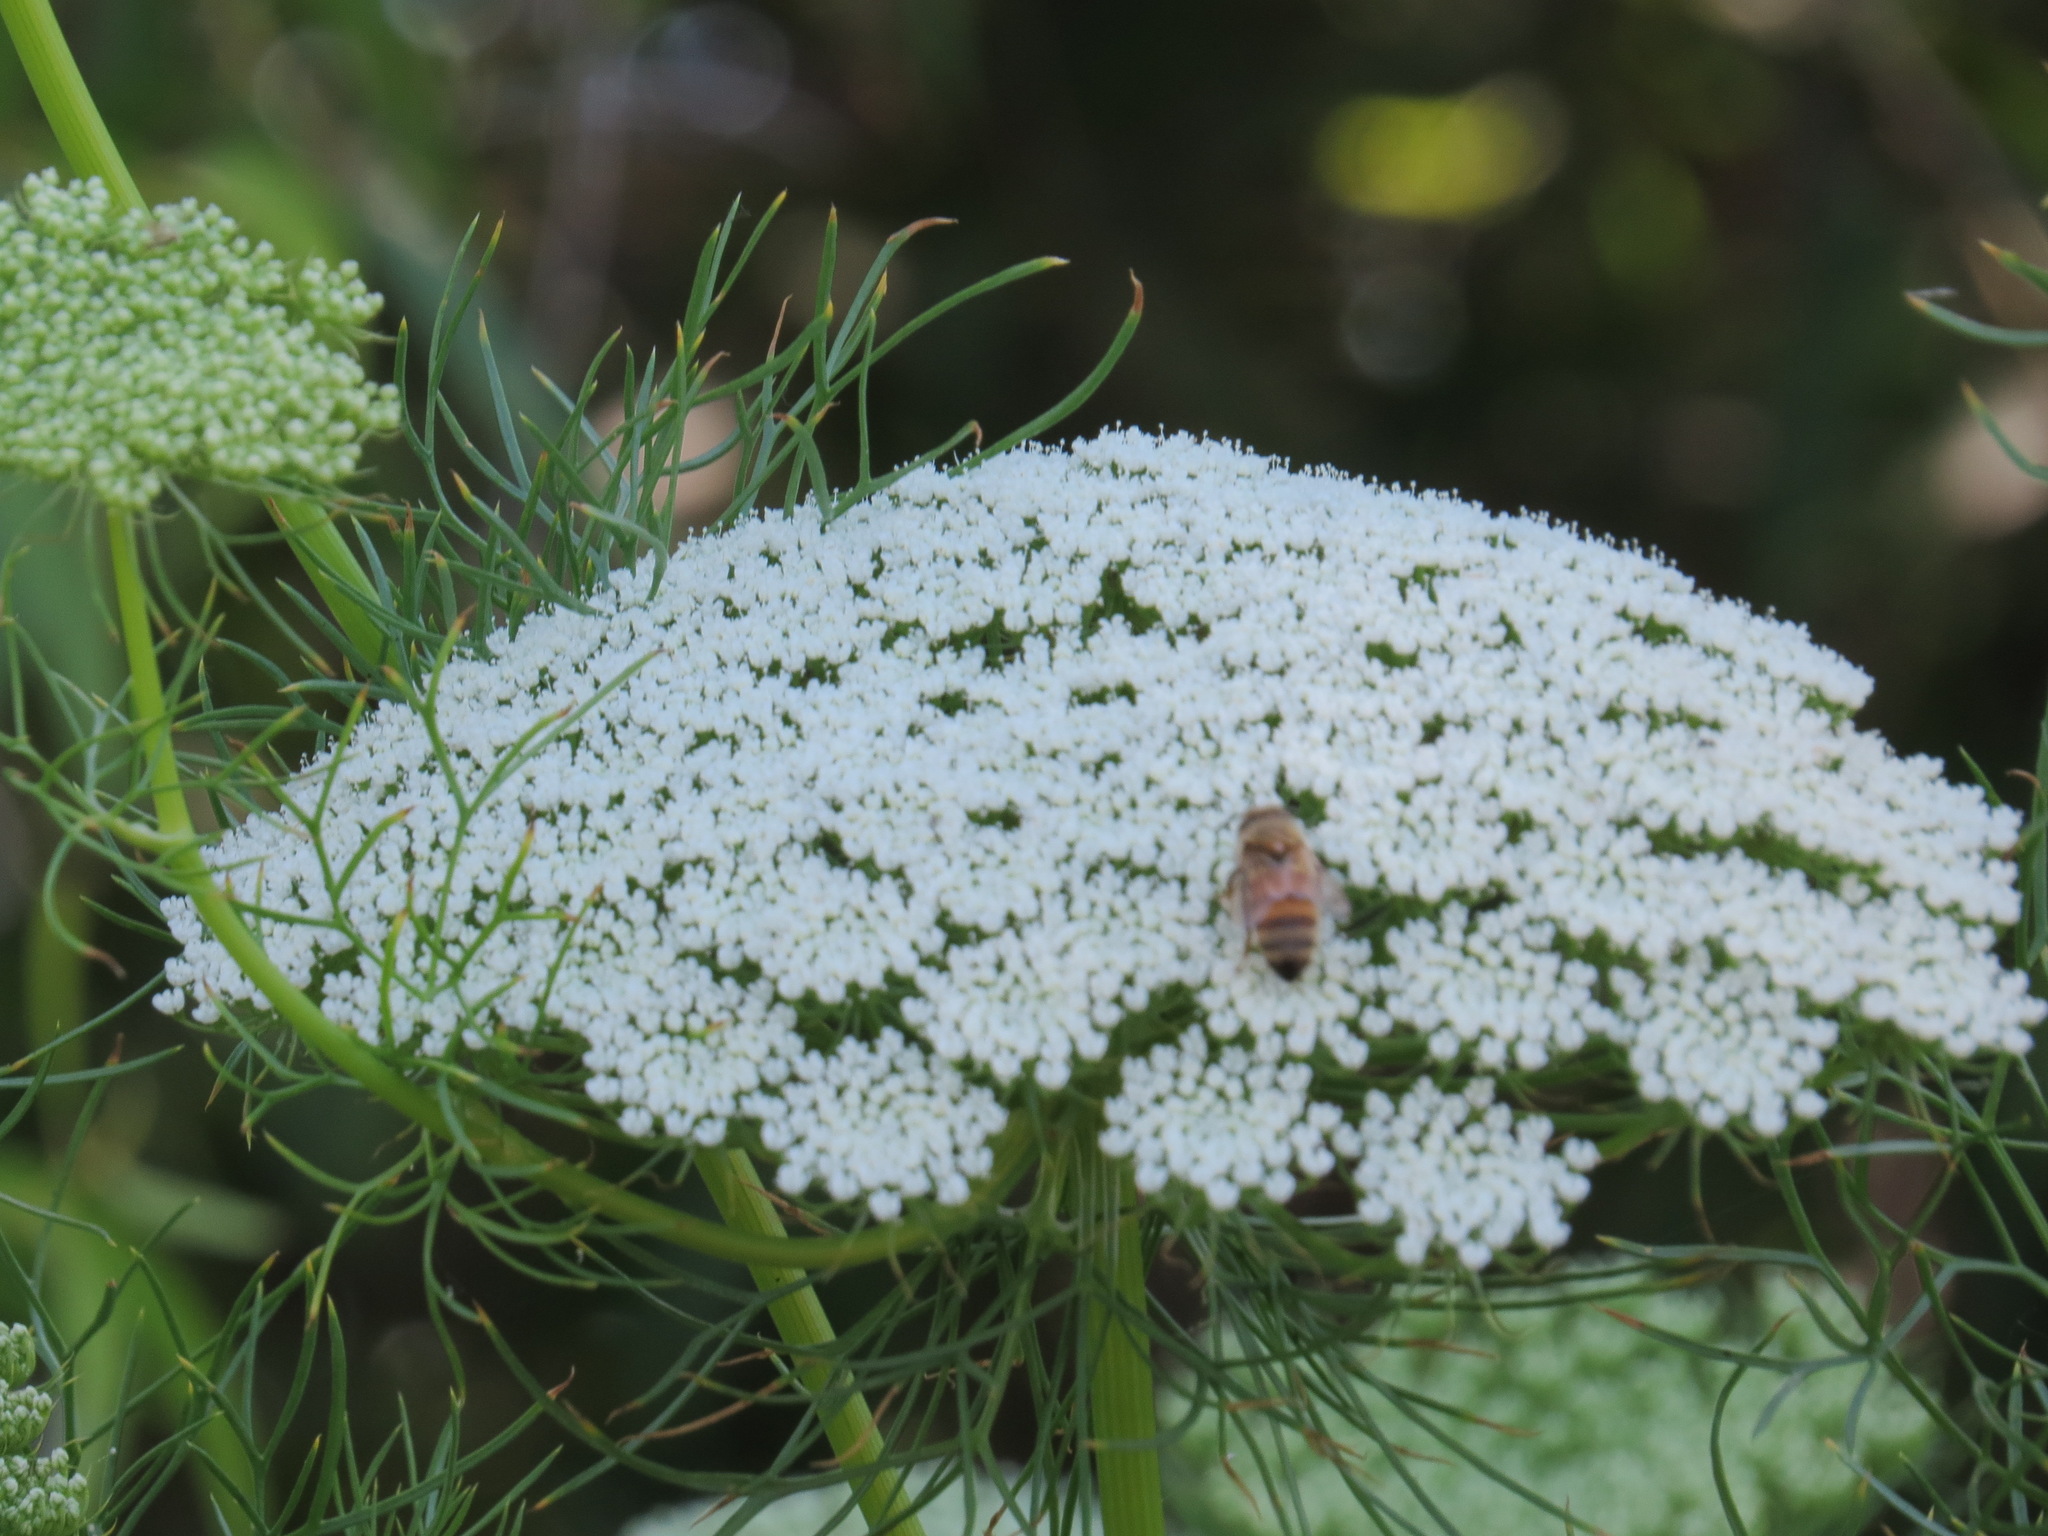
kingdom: Plantae
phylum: Tracheophyta
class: Magnoliopsida
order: Apiales
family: Apiaceae
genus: Visnaga
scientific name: Visnaga daucoides
